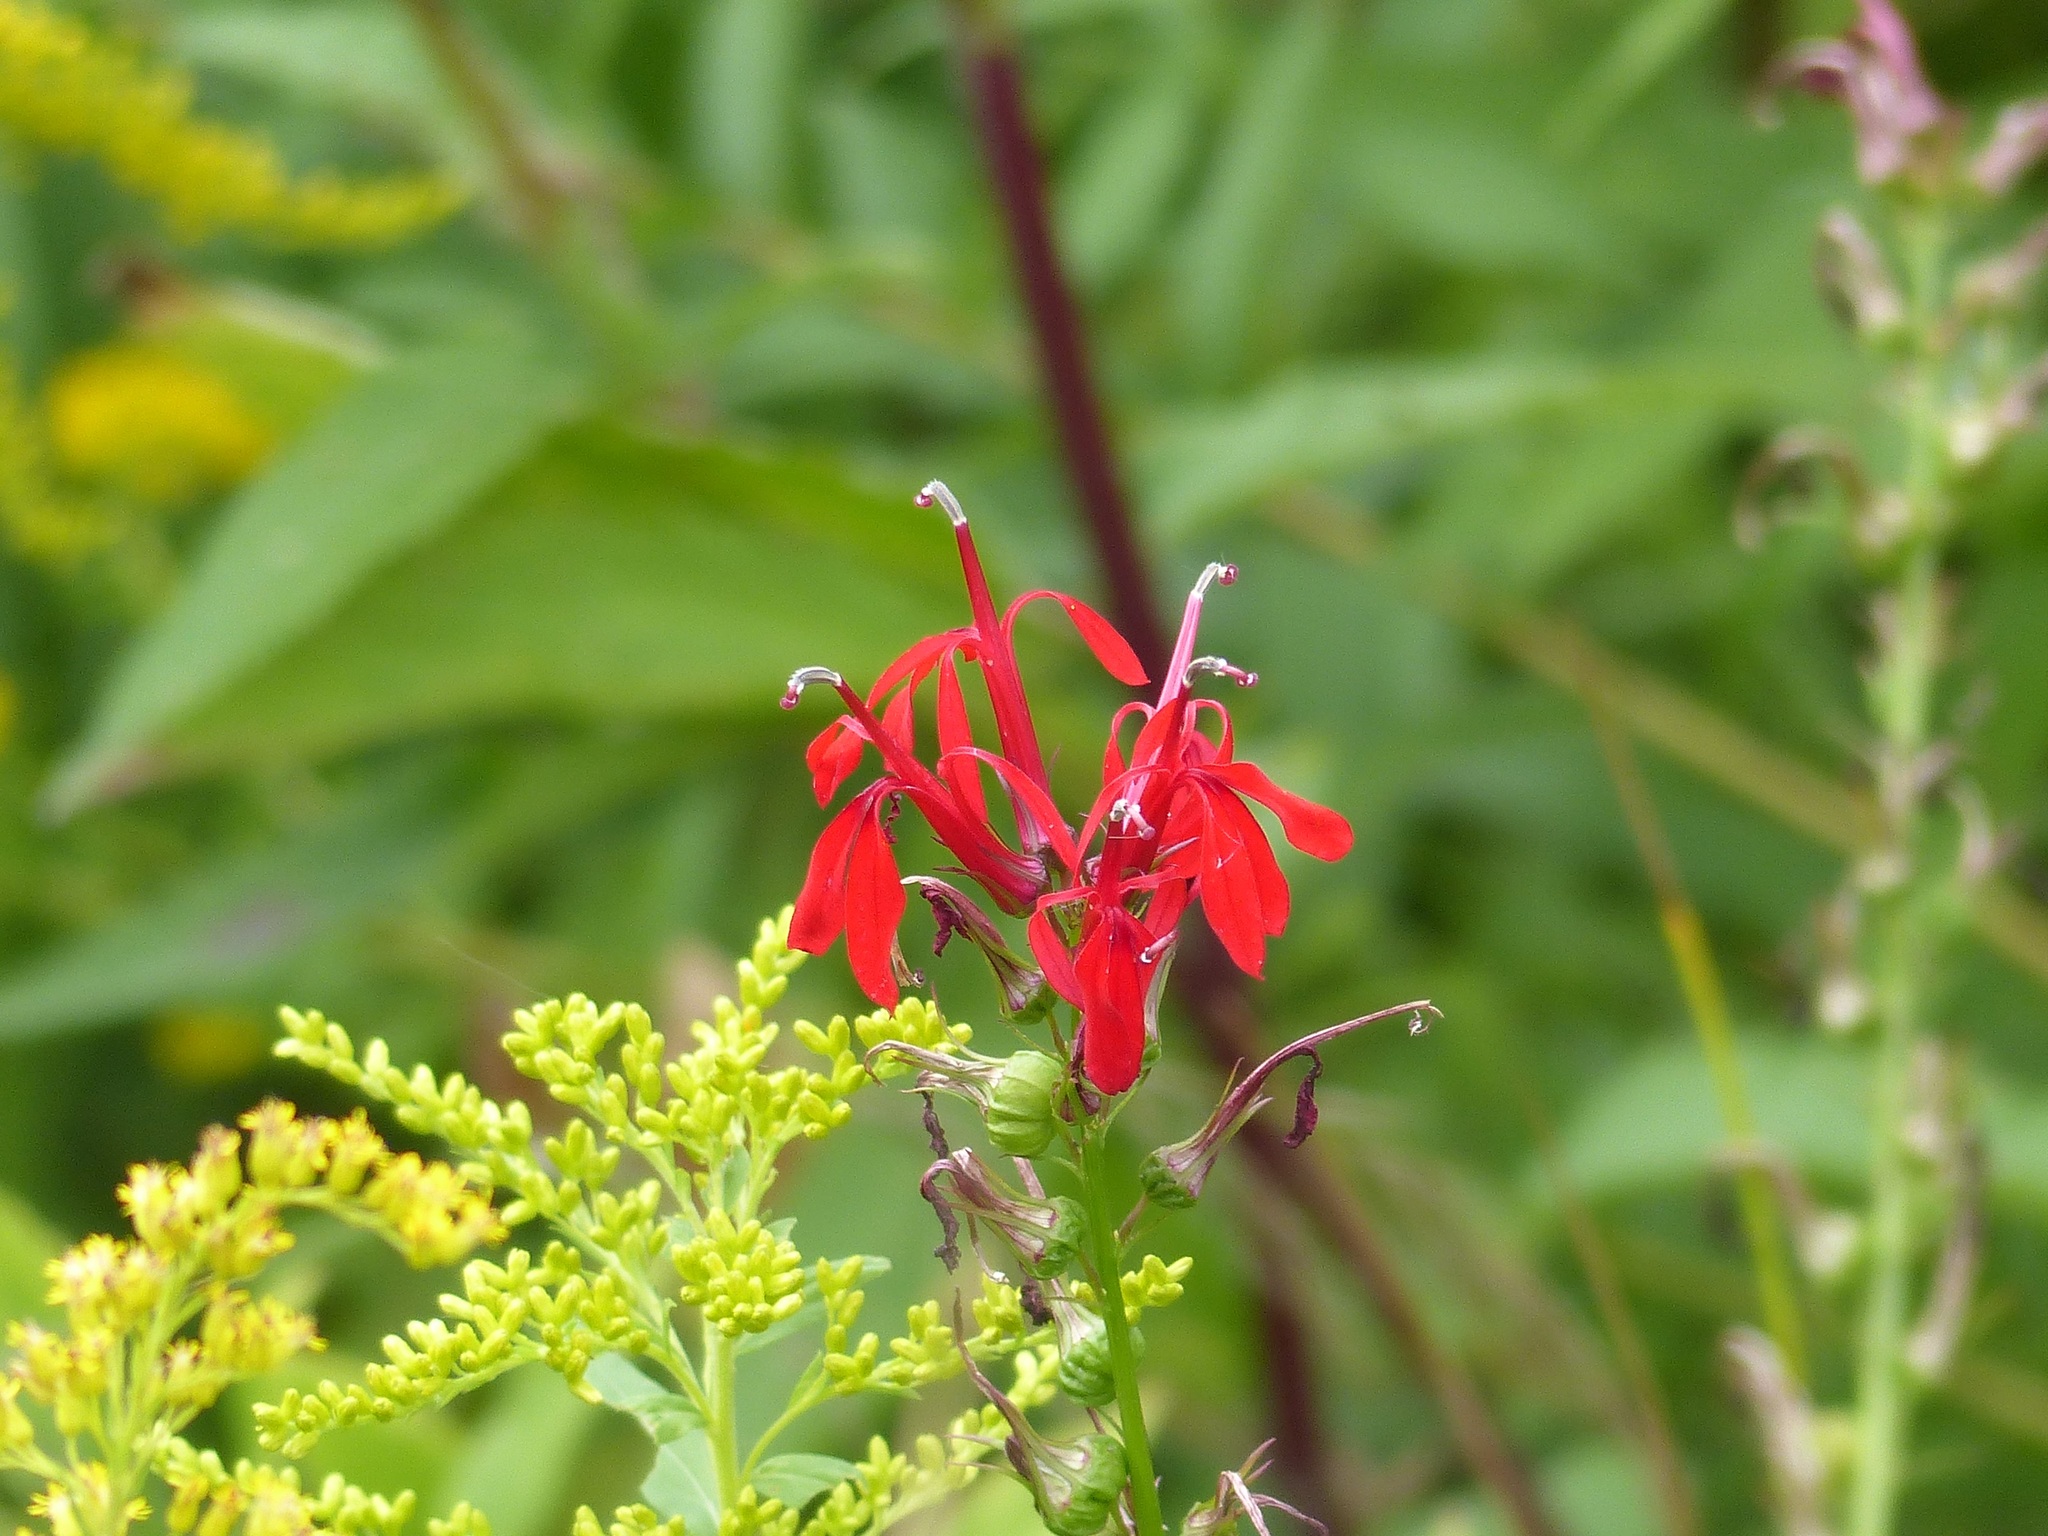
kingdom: Plantae
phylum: Tracheophyta
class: Magnoliopsida
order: Asterales
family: Campanulaceae
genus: Lobelia
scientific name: Lobelia cardinalis
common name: Cardinal flower
